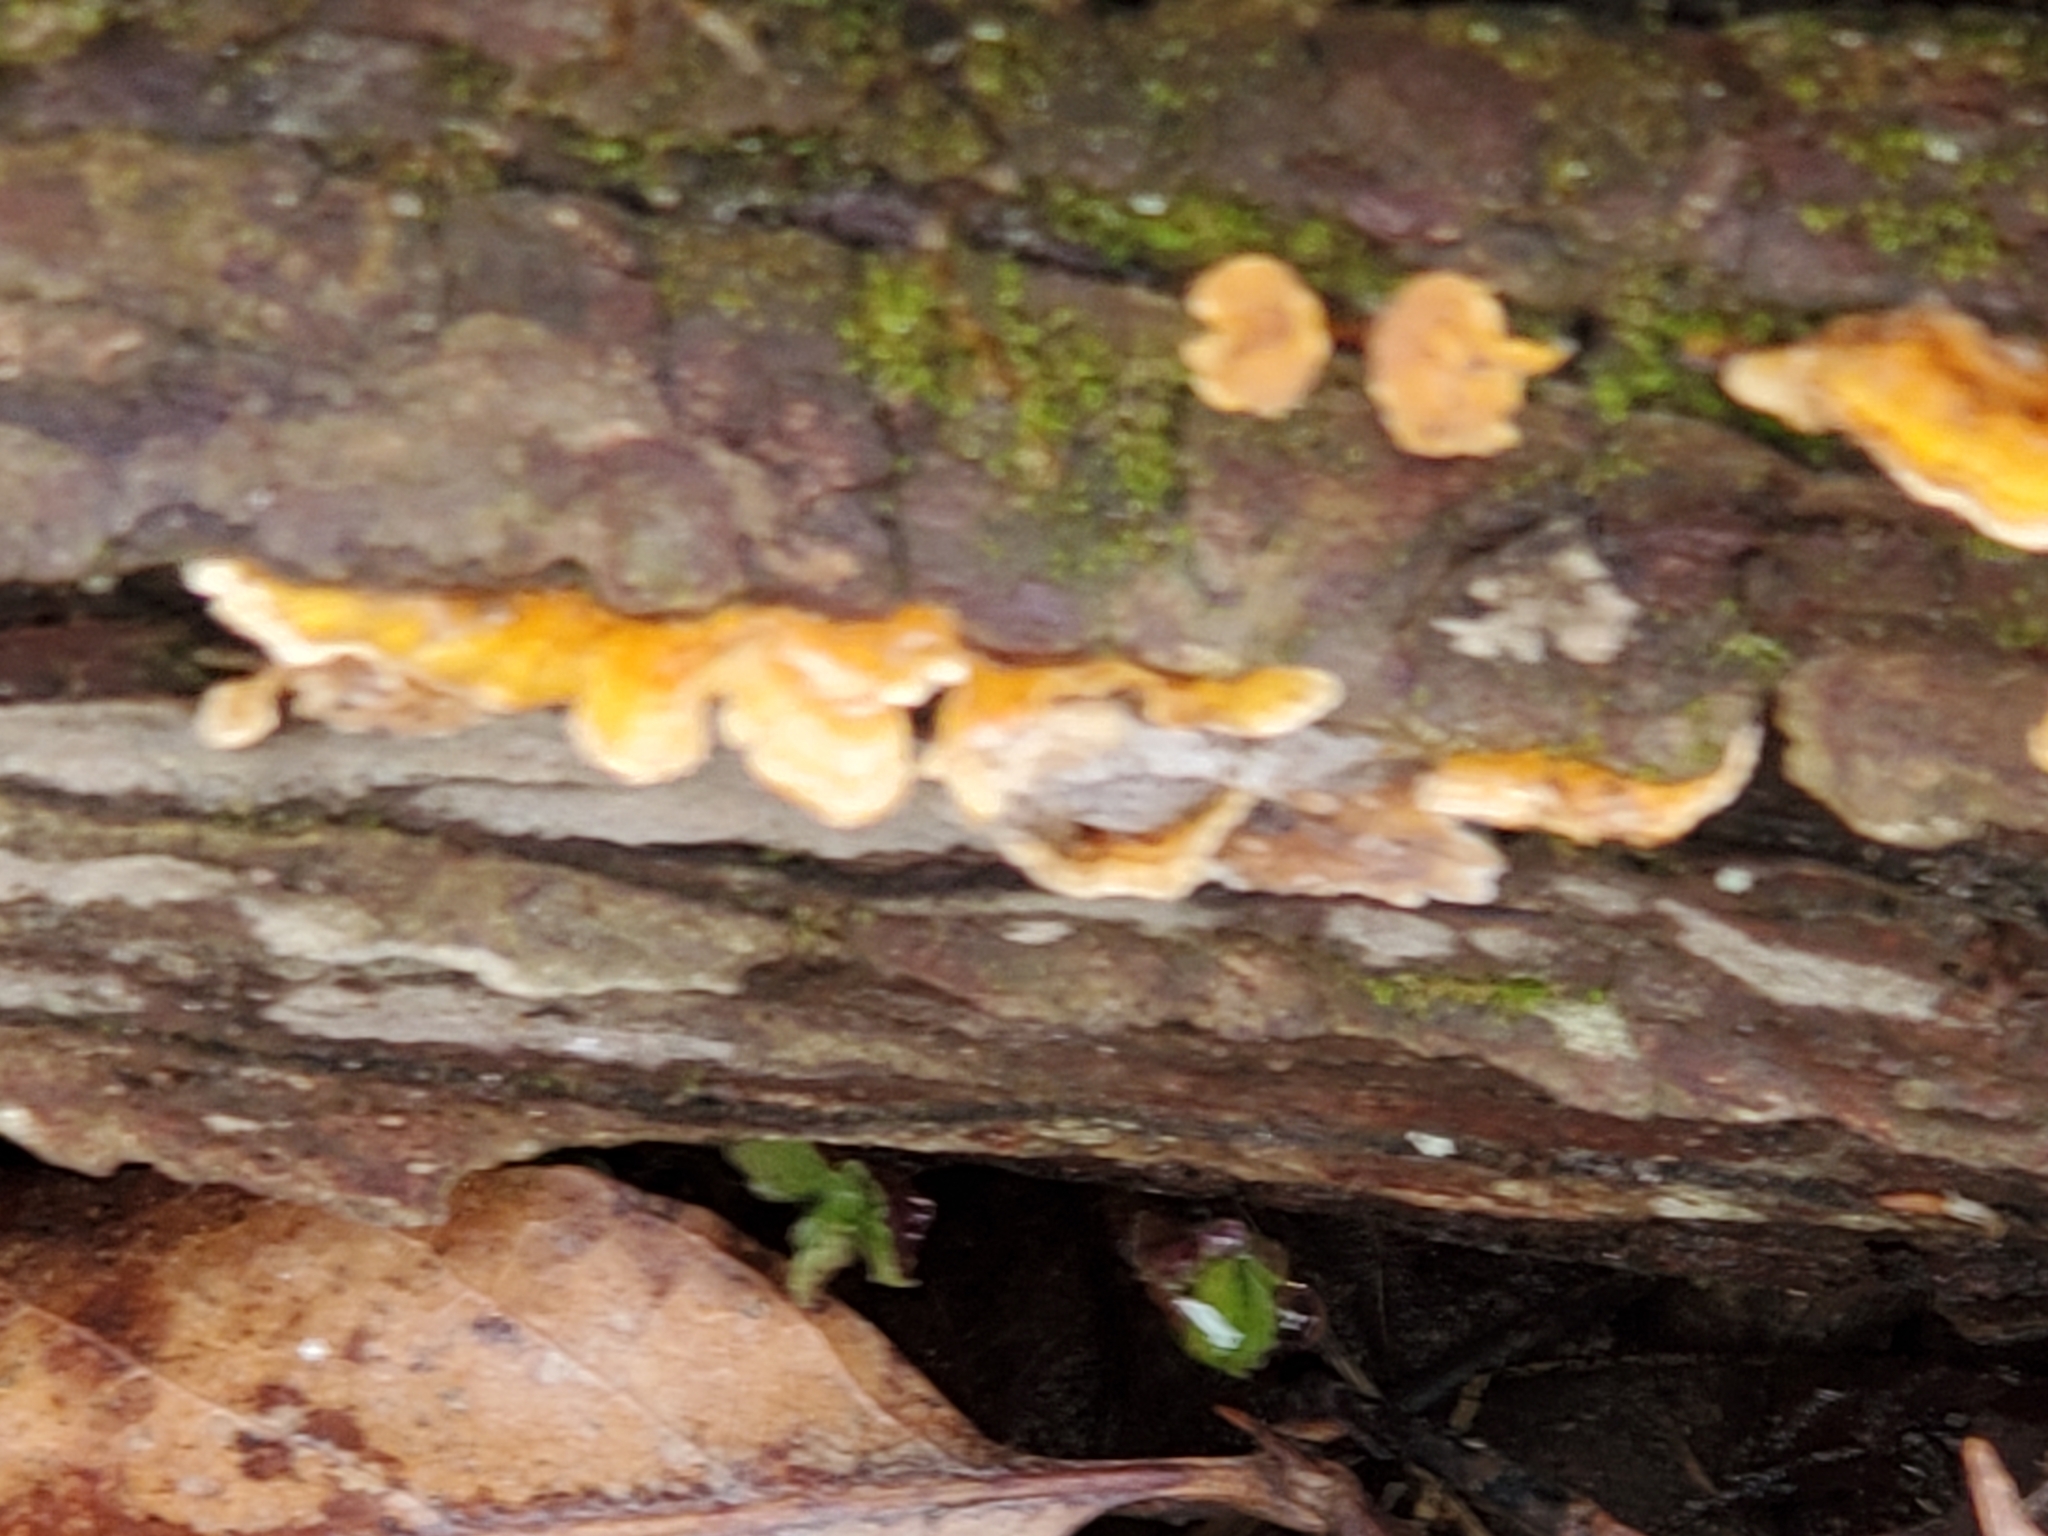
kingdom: Fungi
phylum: Basidiomycota
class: Agaricomycetes
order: Russulales
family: Stereaceae
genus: Stereum
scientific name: Stereum complicatum
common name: Crowded parchment
